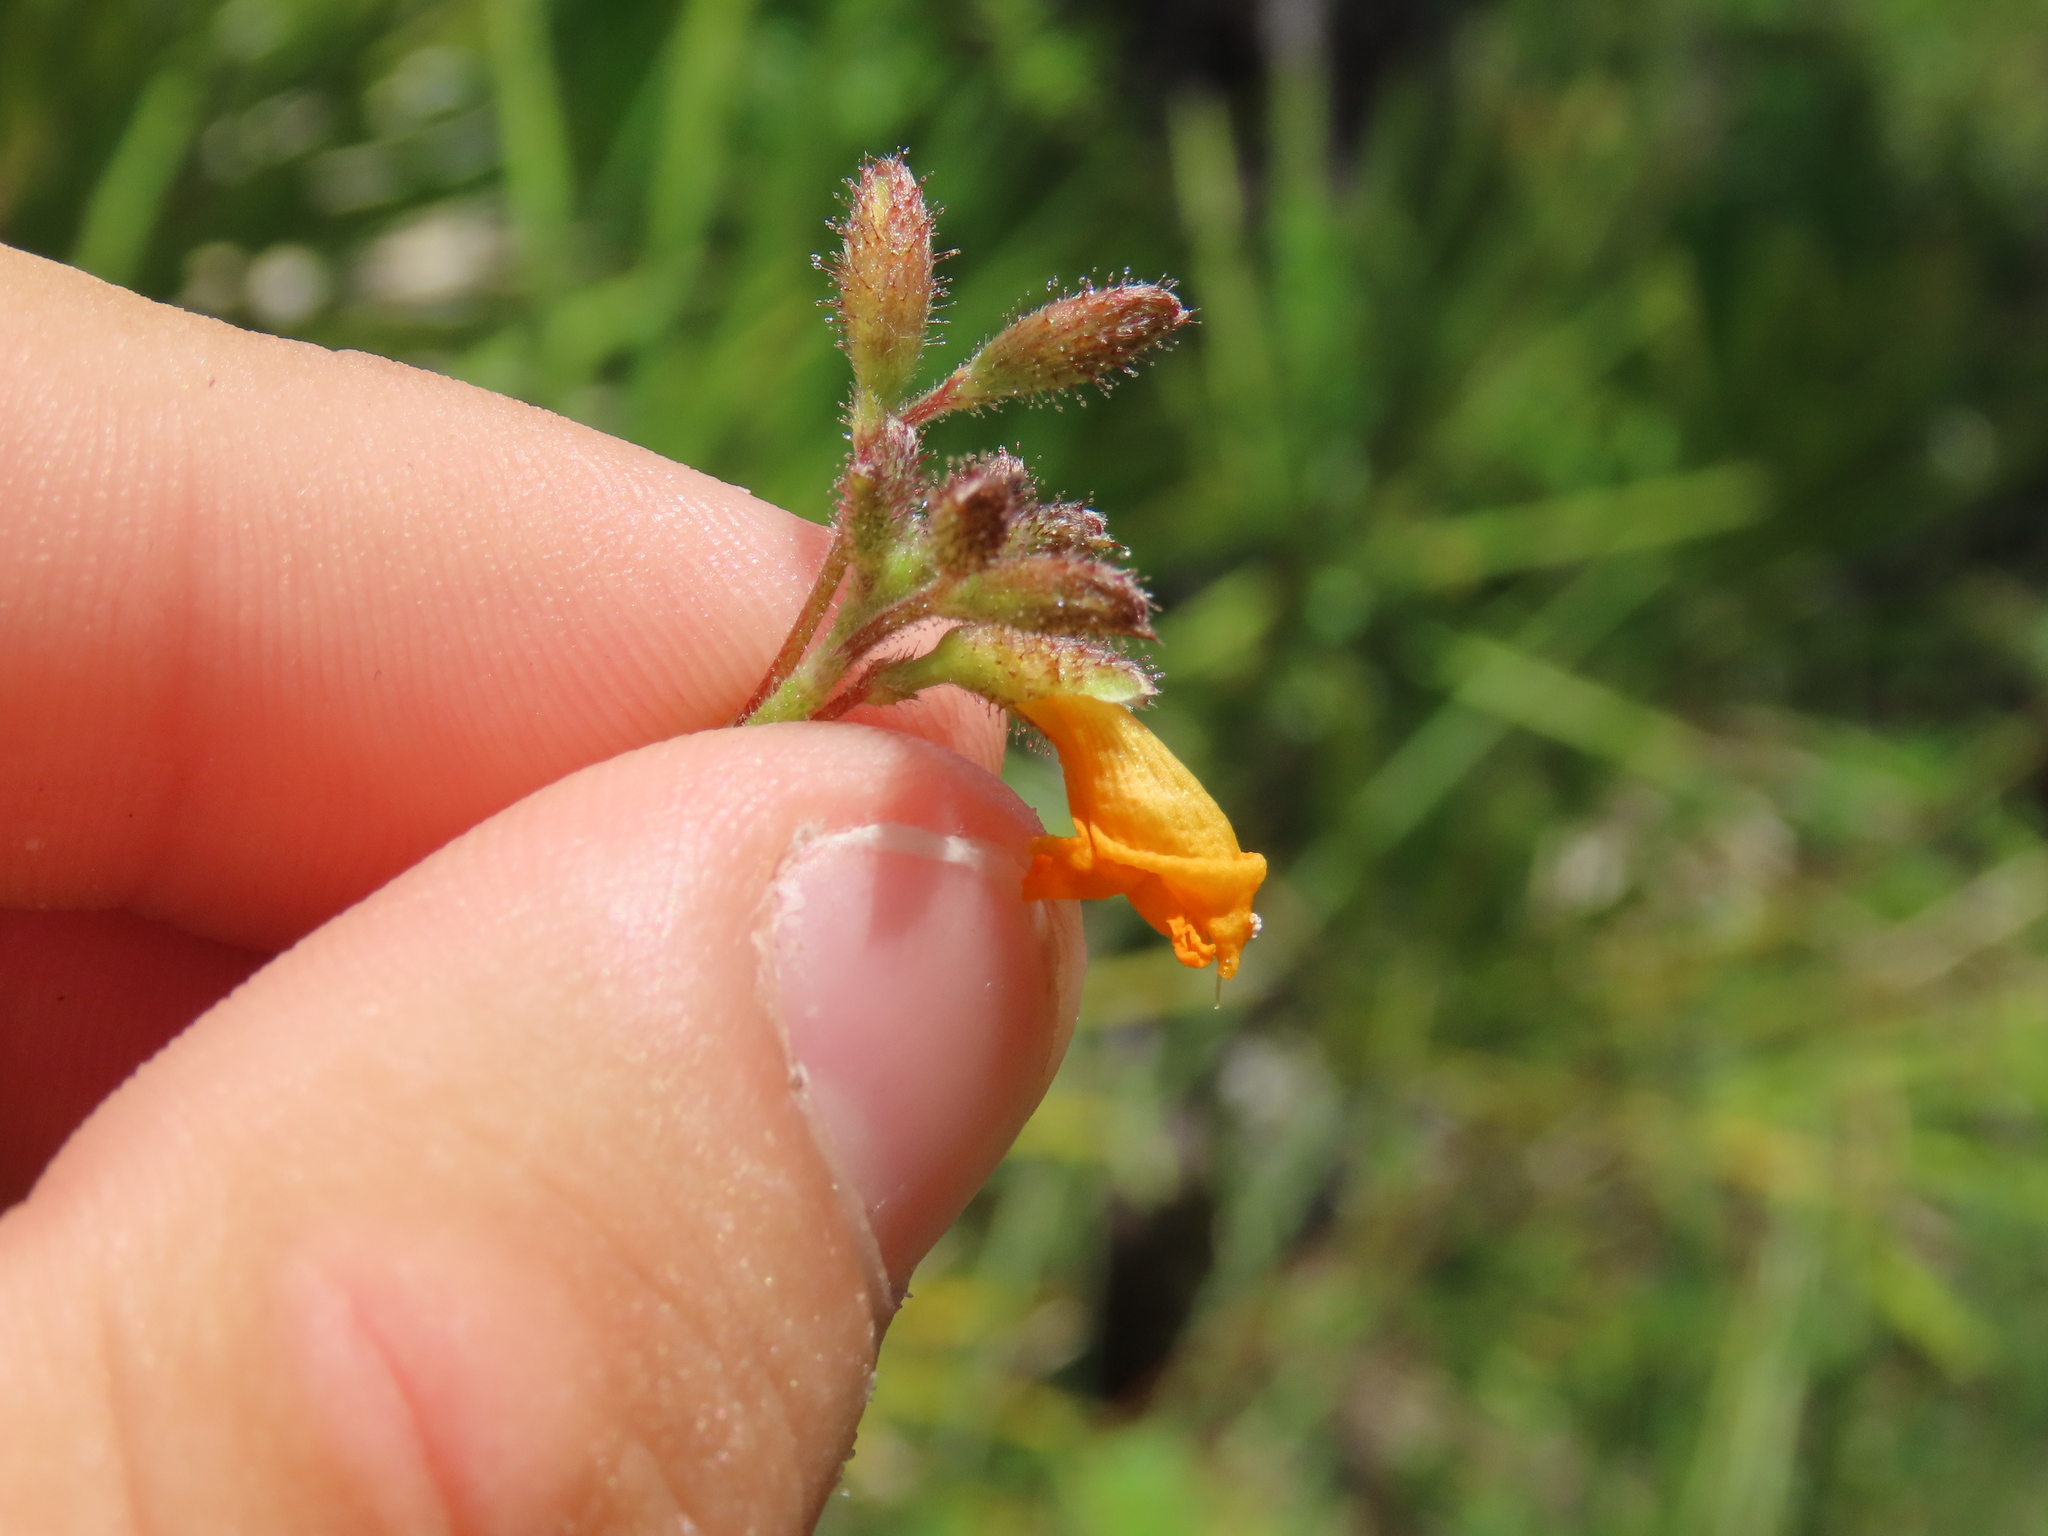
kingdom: Plantae
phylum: Tracheophyta
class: Magnoliopsida
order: Fabales
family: Fabaceae
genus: Chapmannia
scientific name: Chapmannia floridana
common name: Alicia
